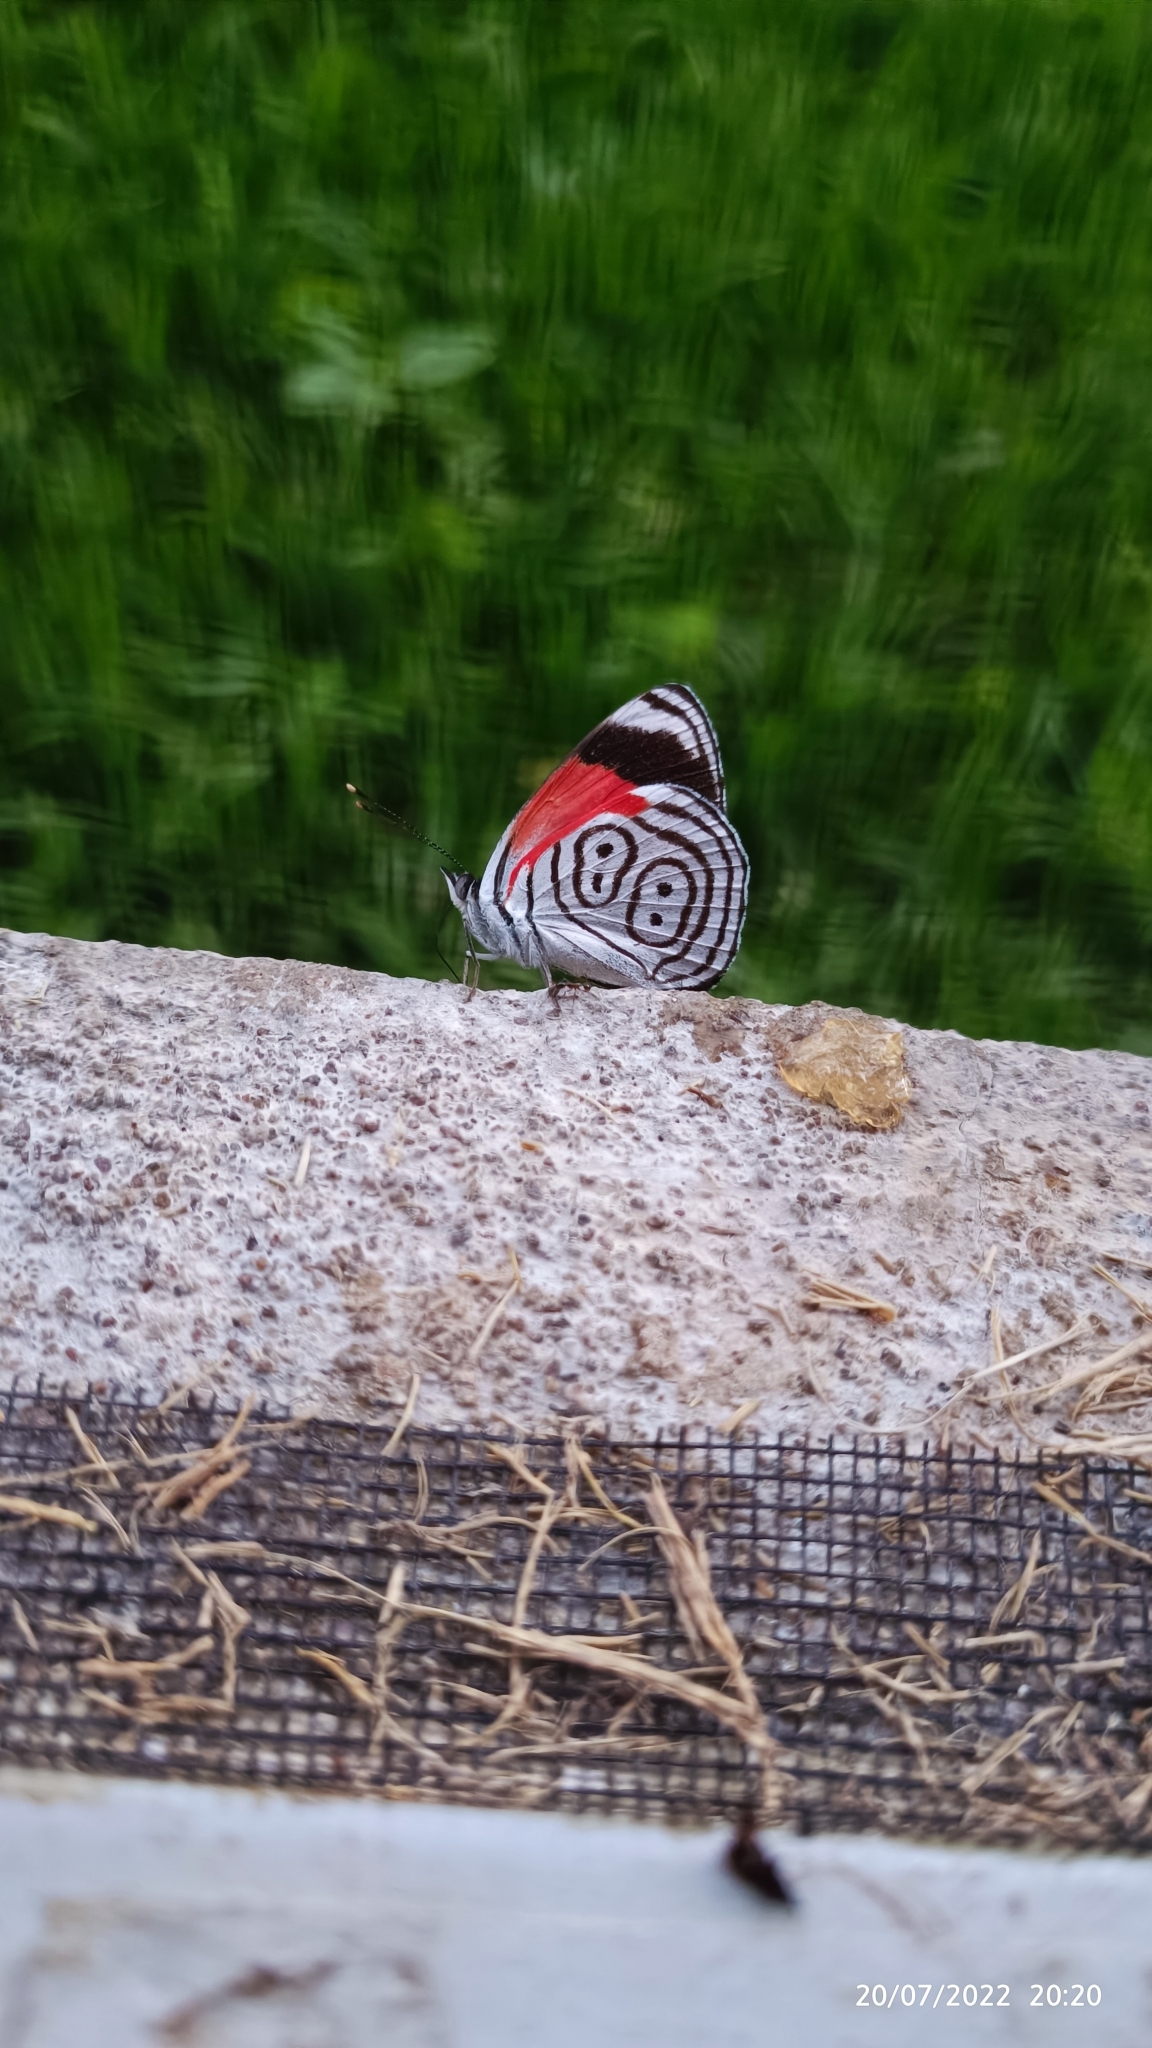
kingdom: Animalia
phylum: Arthropoda
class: Insecta
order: Lepidoptera
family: Nymphalidae
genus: Diaethria
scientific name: Diaethria anna
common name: Anna’s eighty-eight
